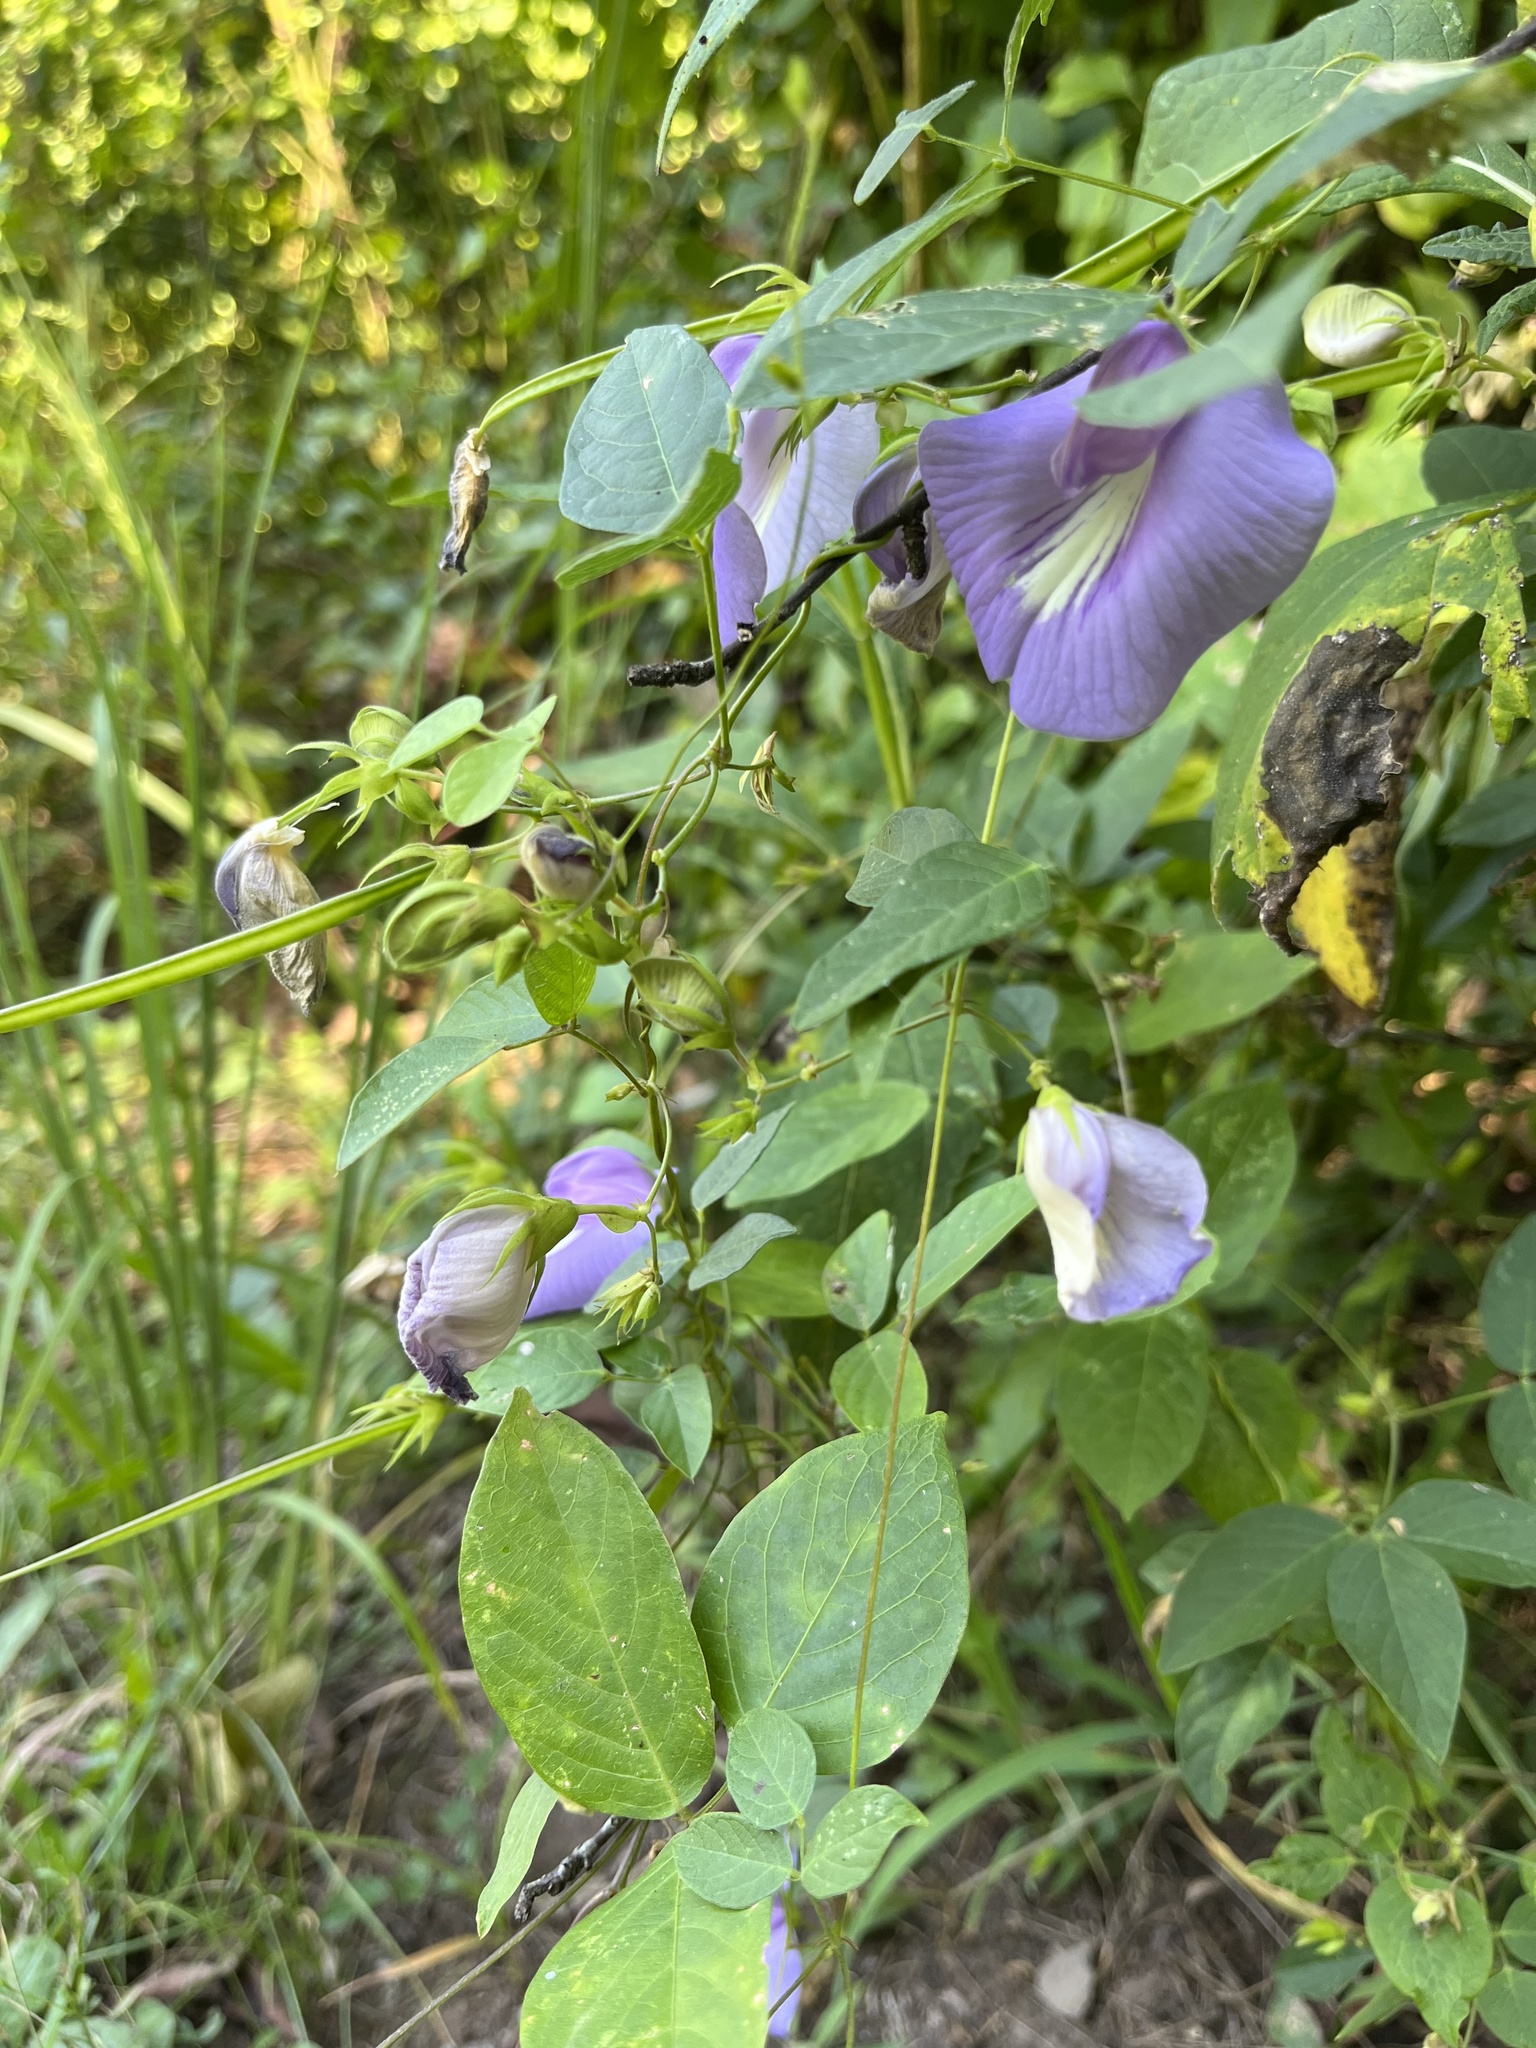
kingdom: Plantae
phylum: Tracheophyta
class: Magnoliopsida
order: Fabales
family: Fabaceae
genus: Centrosema
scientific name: Centrosema virginianum
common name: Butterfly-pea
